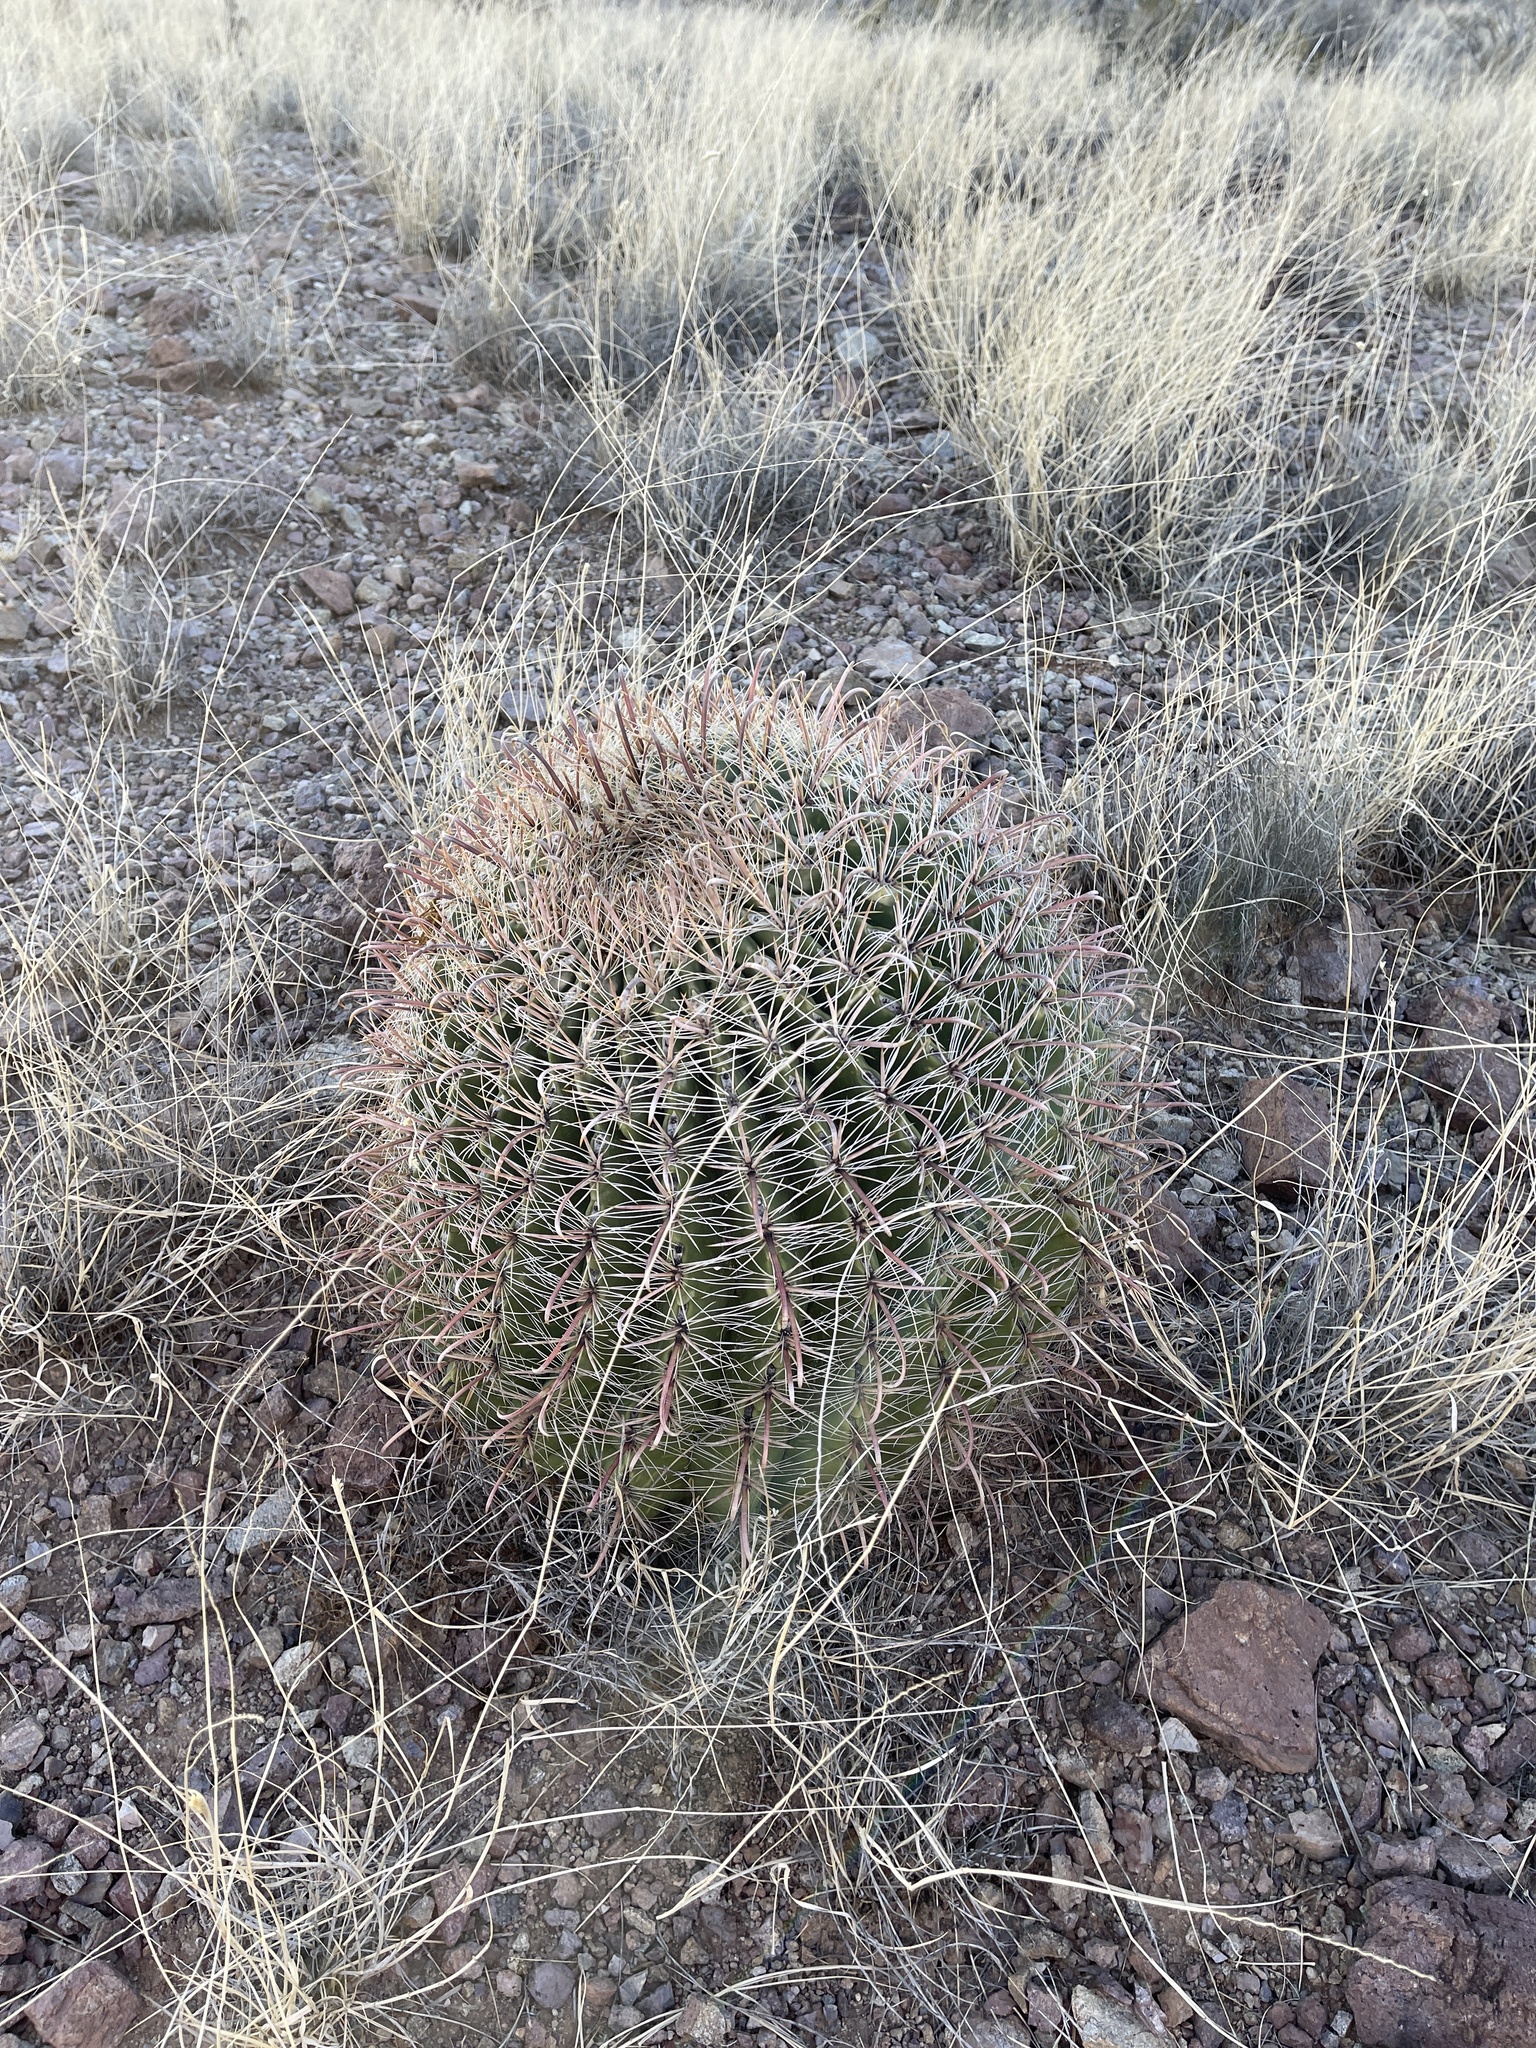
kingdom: Plantae
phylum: Tracheophyta
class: Magnoliopsida
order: Caryophyllales
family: Cactaceae
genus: Ferocactus
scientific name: Ferocactus wislizeni
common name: Candy barrel cactus
